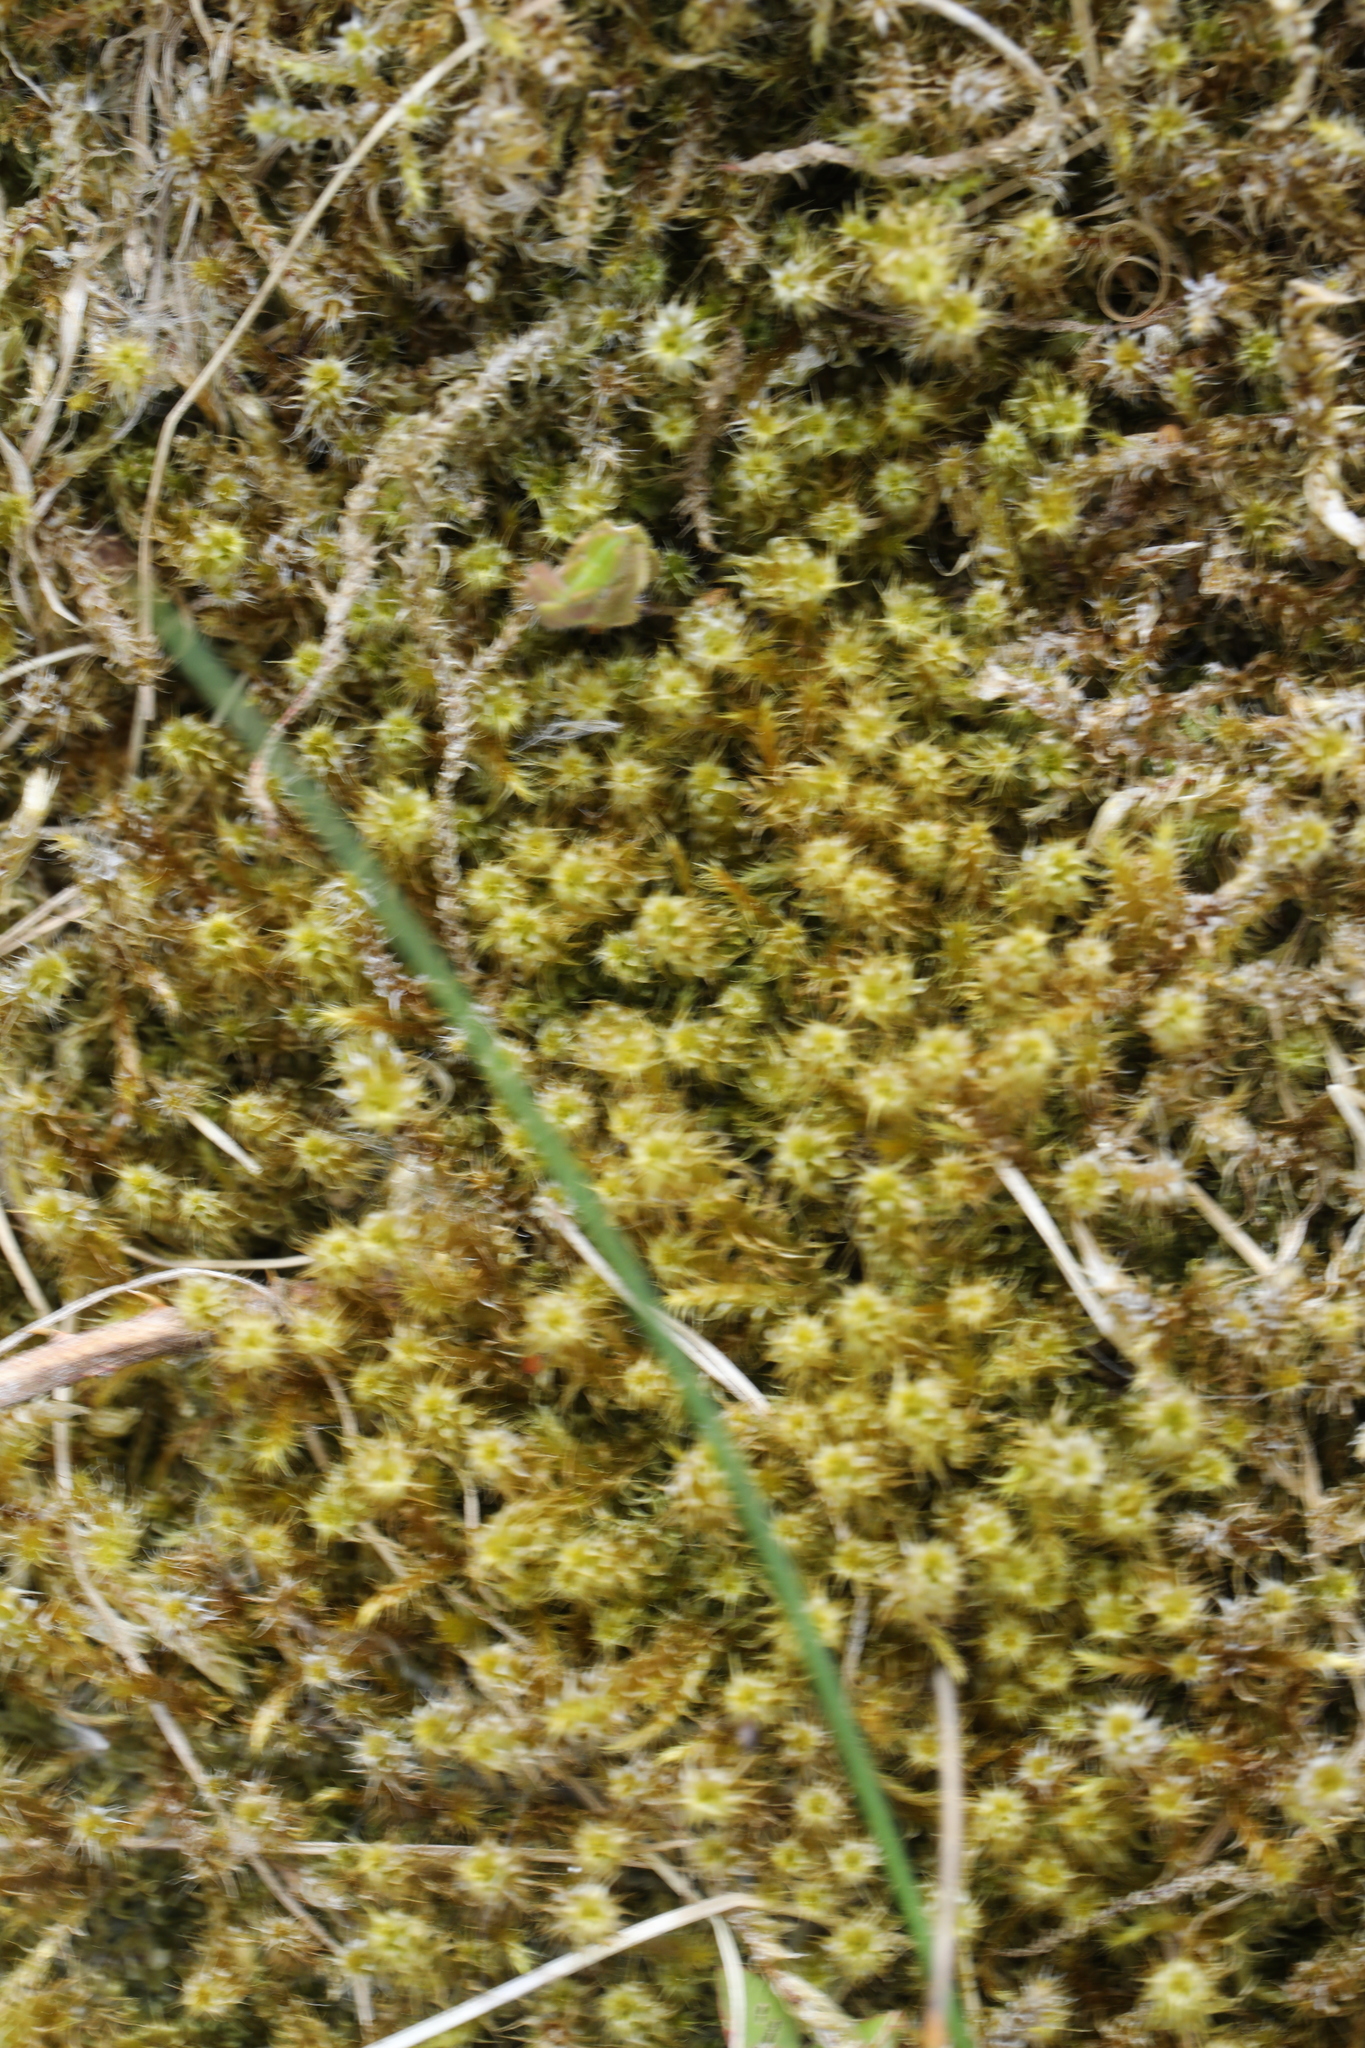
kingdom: Plantae
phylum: Bryophyta
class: Bryopsida
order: Hypnales
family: Hylocomiaceae
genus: Rhytidiadelphus
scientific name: Rhytidiadelphus squarrosus
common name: Springy turf-moss
